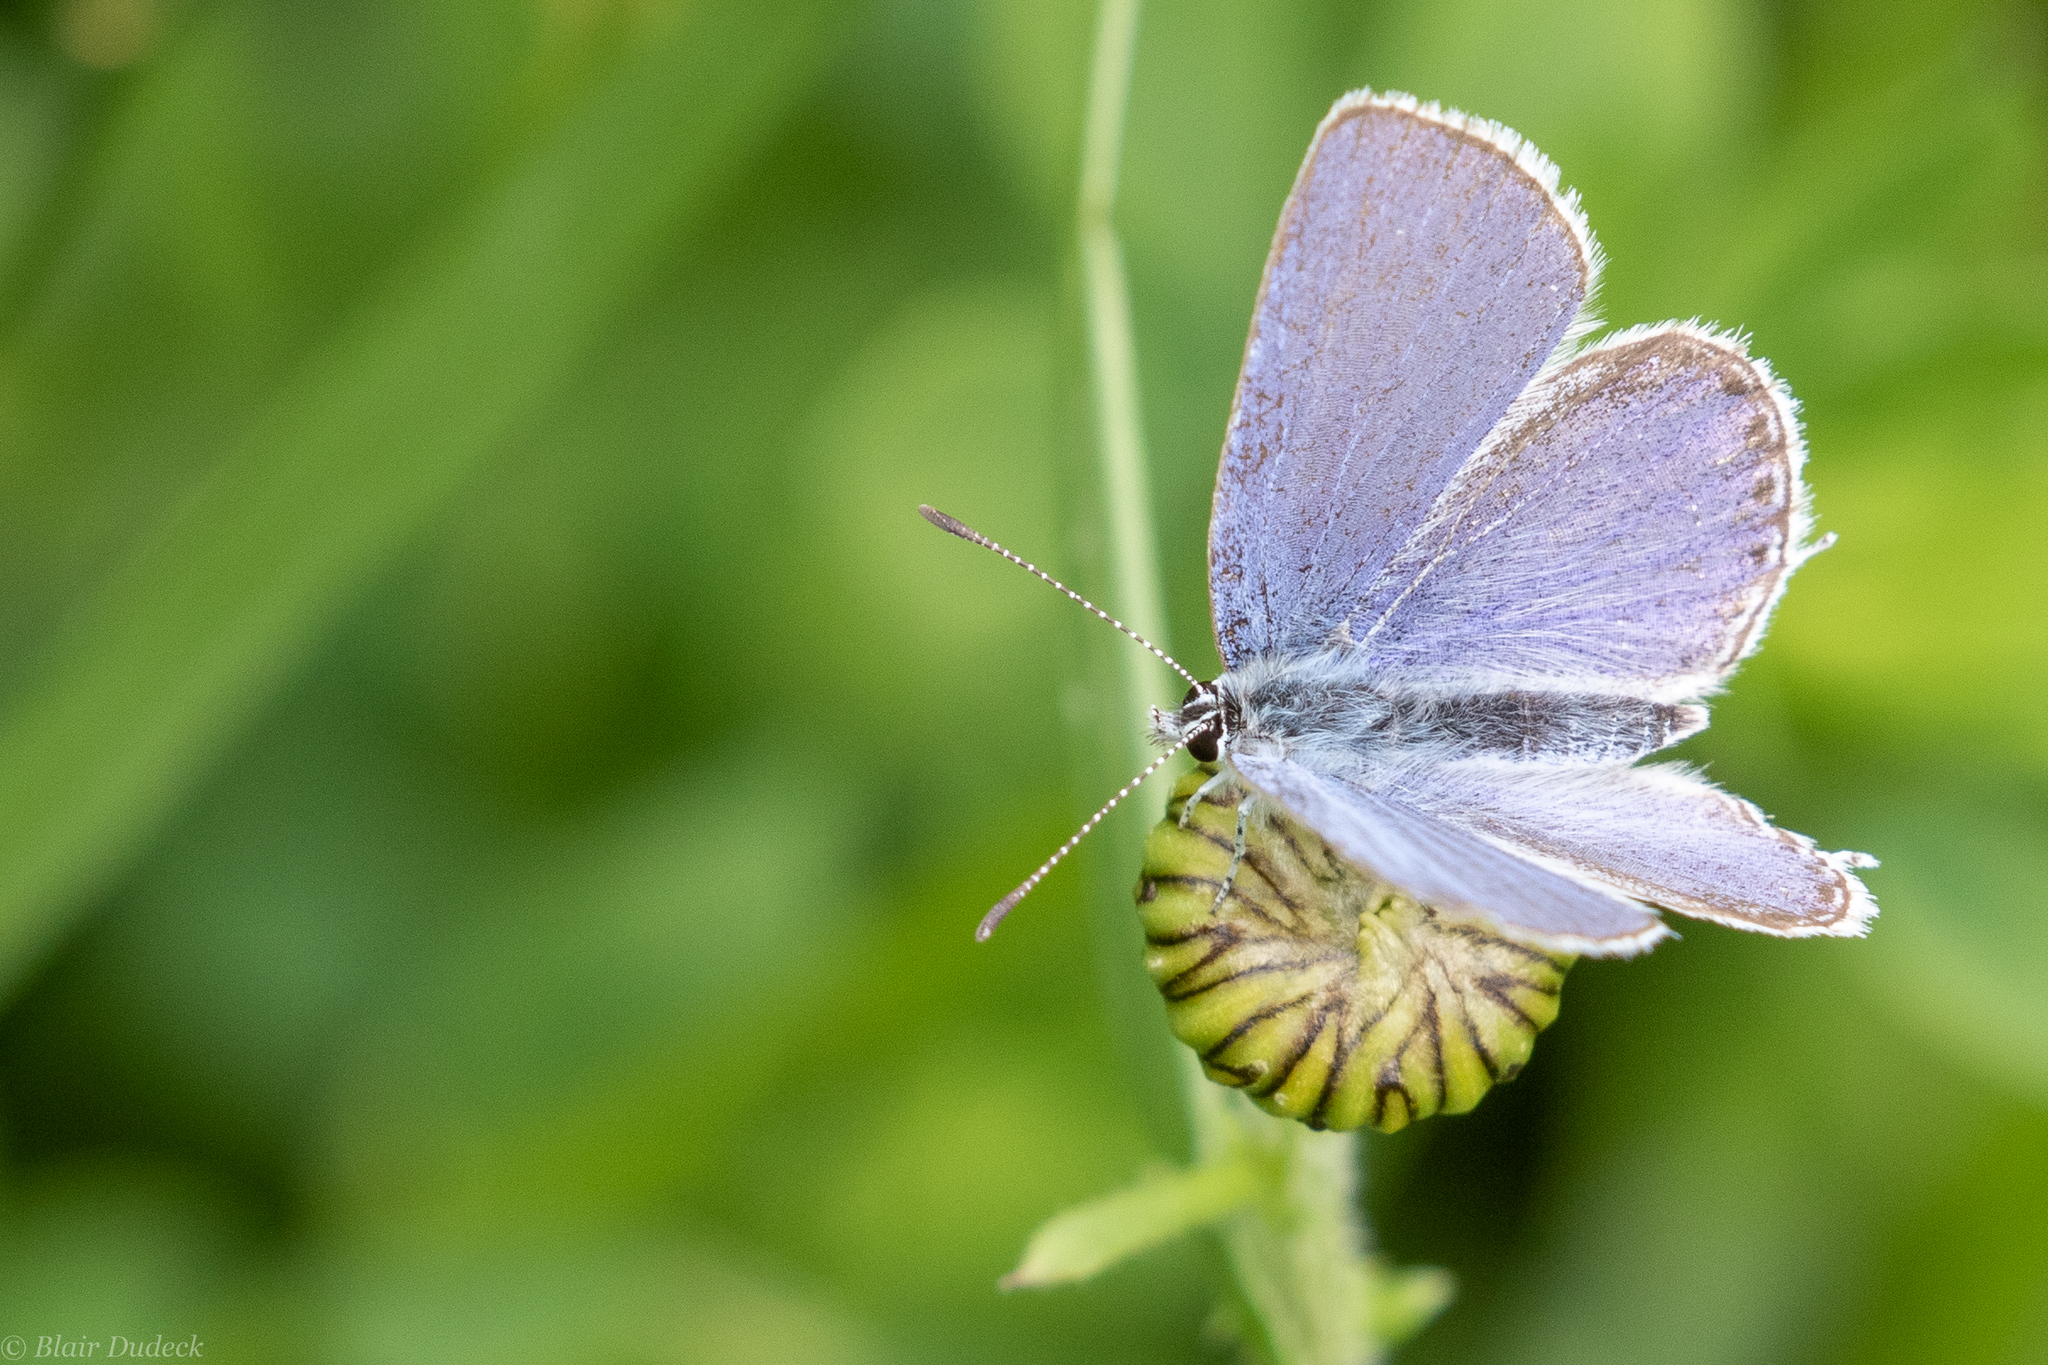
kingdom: Animalia
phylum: Arthropoda
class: Insecta
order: Lepidoptera
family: Lycaenidae
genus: Elkalyce
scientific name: Elkalyce amyntula
